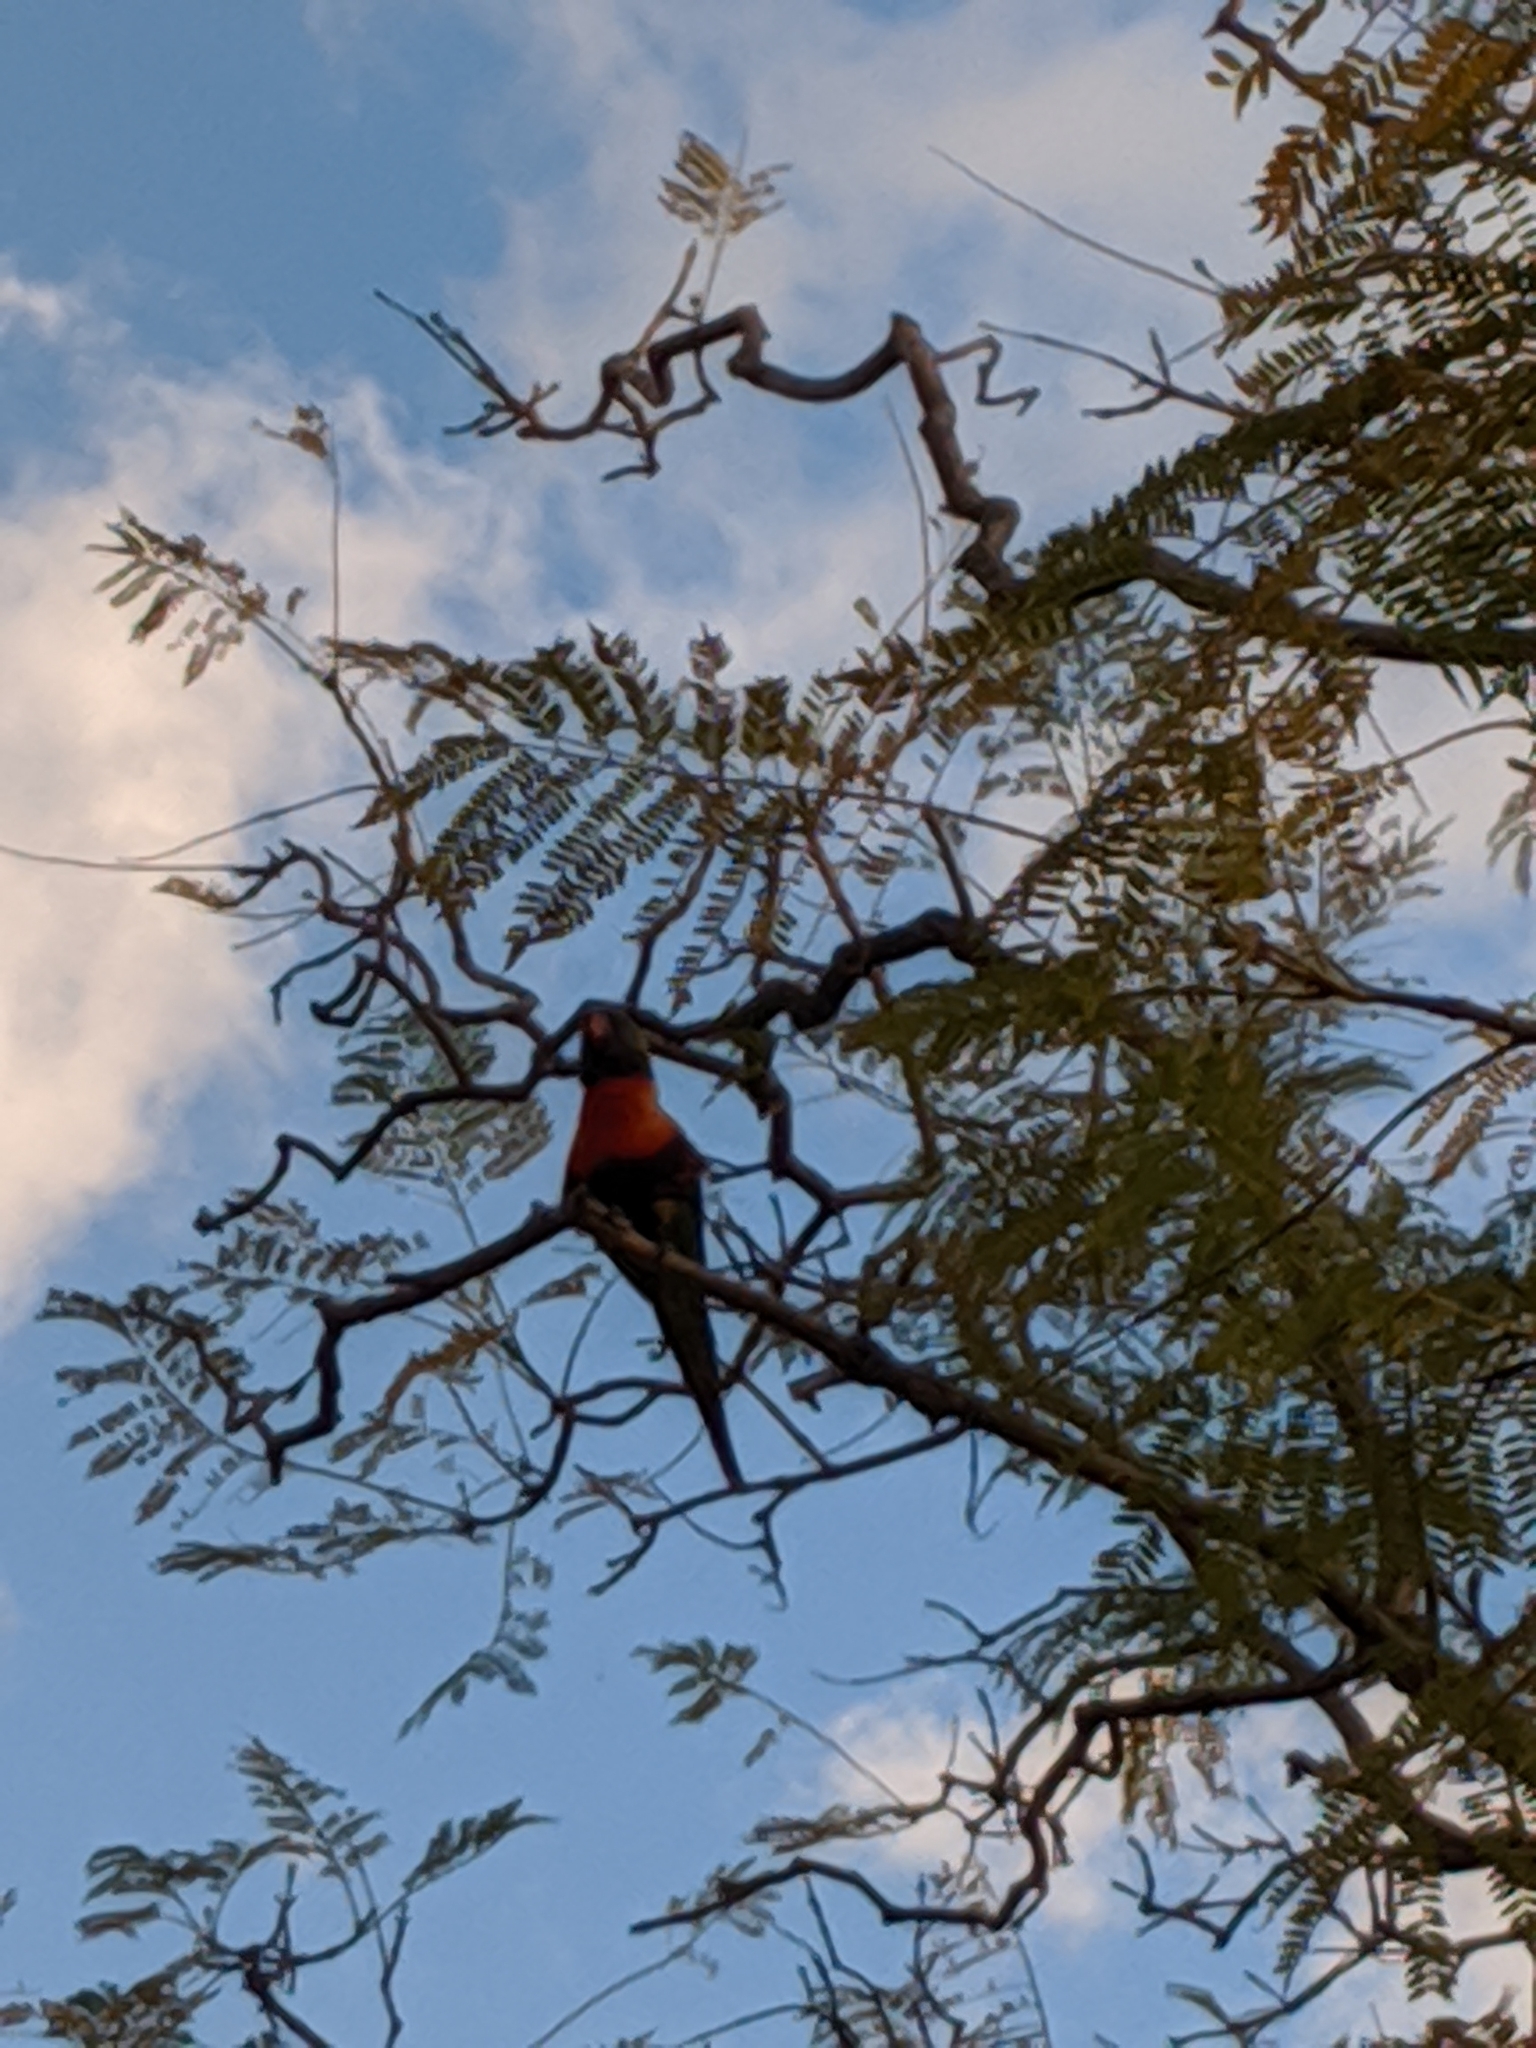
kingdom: Animalia
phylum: Chordata
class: Aves
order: Psittaciformes
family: Psittacidae
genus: Trichoglossus
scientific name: Trichoglossus haematodus
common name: Coconut lorikeet
